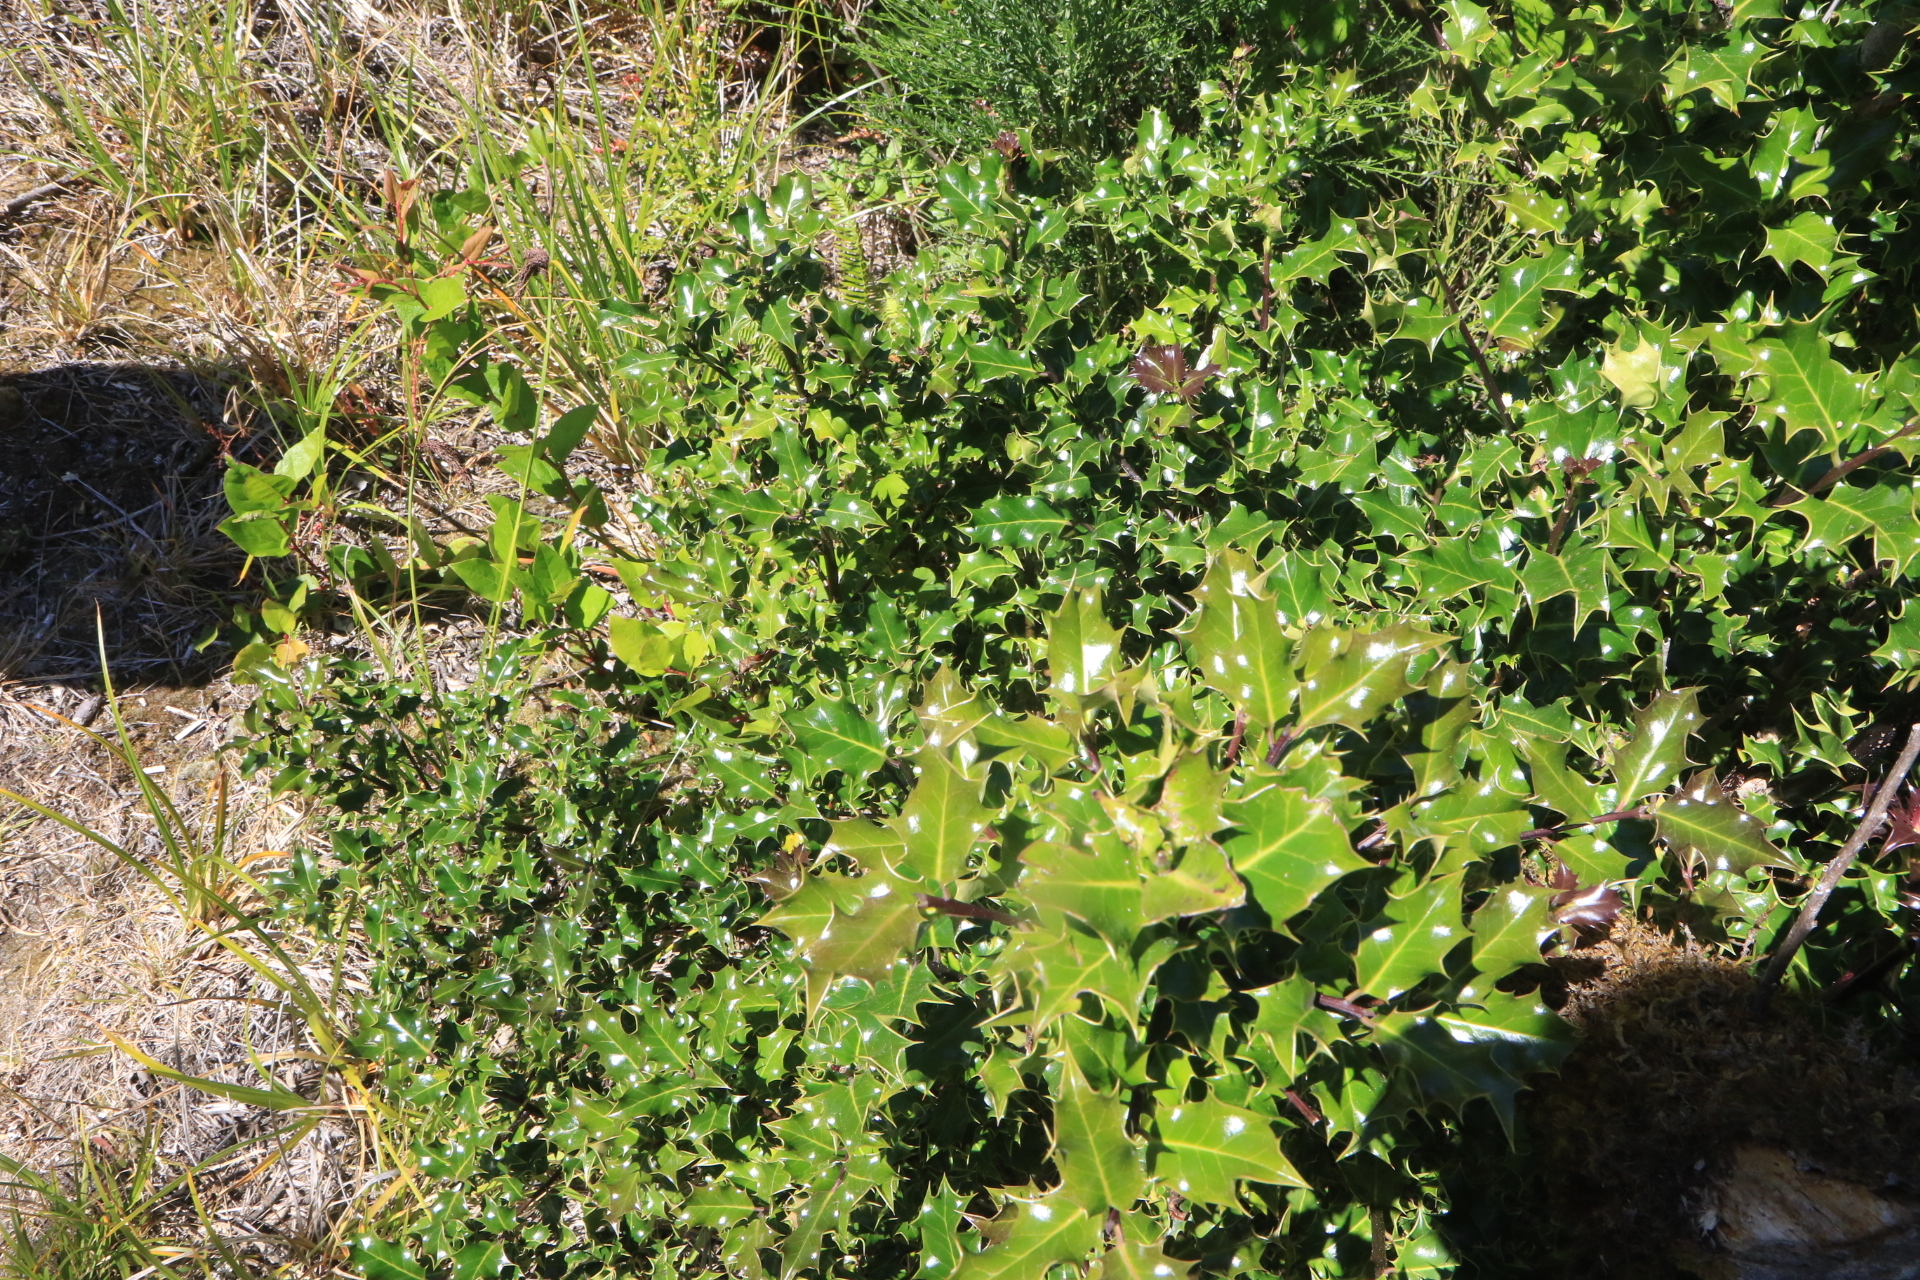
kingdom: Plantae
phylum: Tracheophyta
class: Magnoliopsida
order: Aquifoliales
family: Aquifoliaceae
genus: Ilex
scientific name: Ilex aquifolium
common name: English holly
